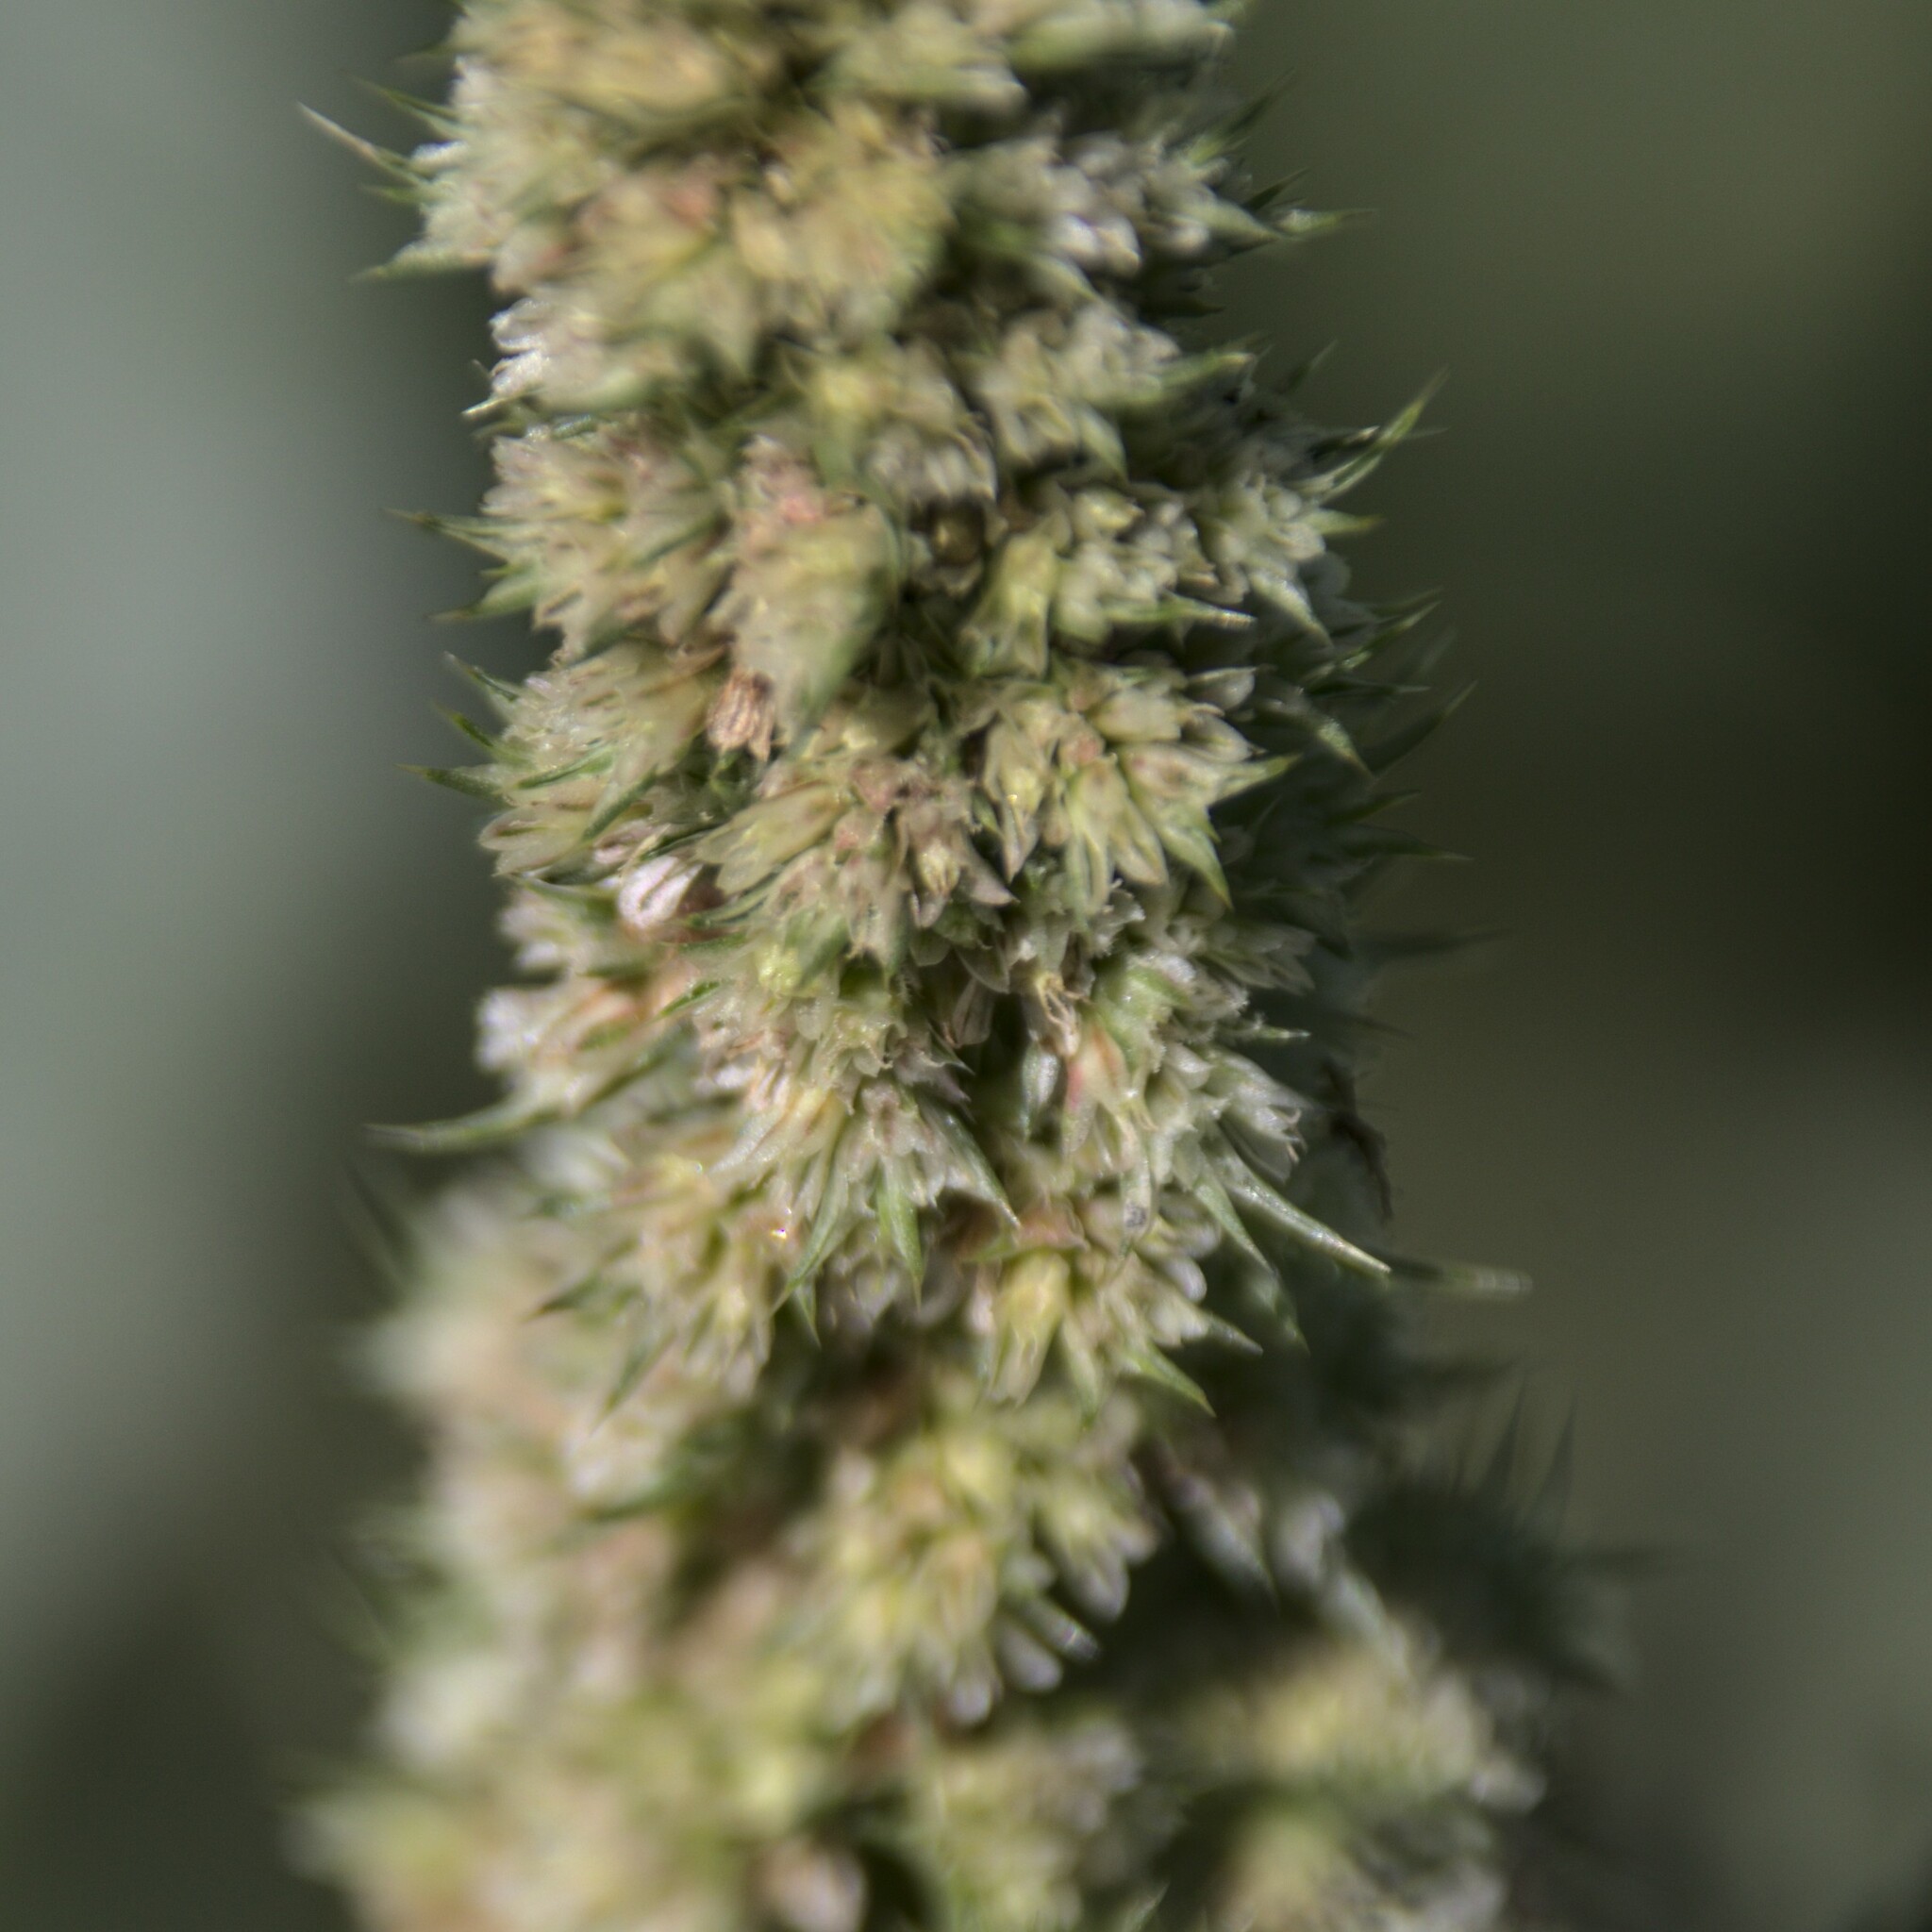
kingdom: Plantae
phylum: Tracheophyta
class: Magnoliopsida
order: Caryophyllales
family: Amaranthaceae
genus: Amaranthus
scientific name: Amaranthus retroflexus
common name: Redroot amaranth
